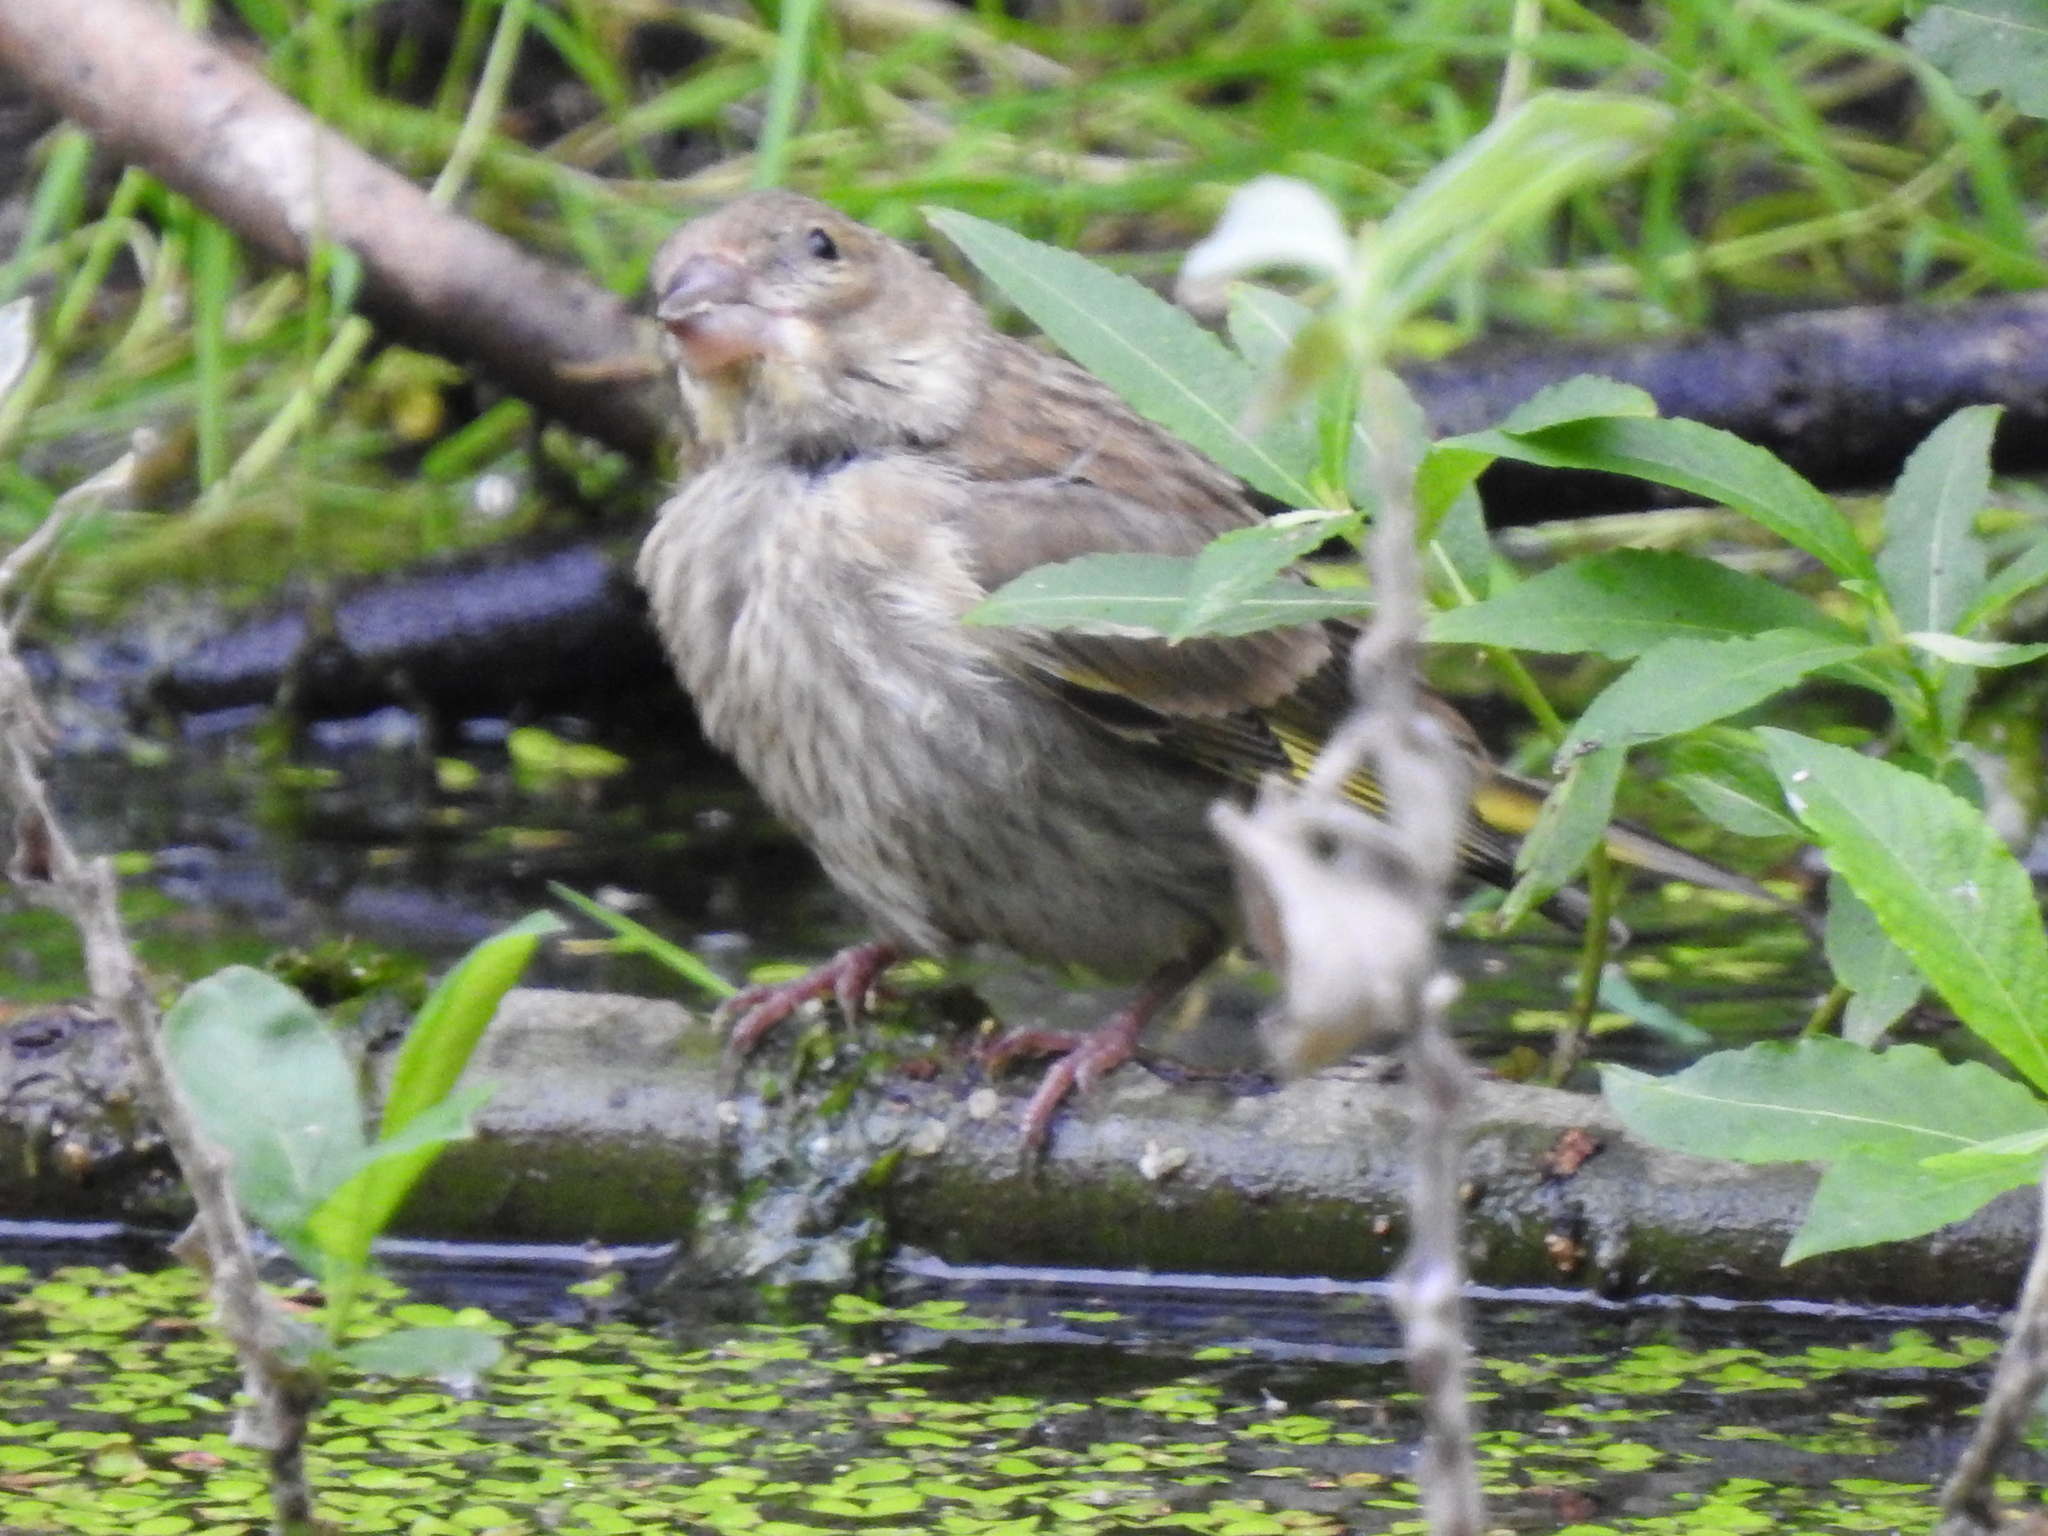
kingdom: Plantae
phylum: Tracheophyta
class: Liliopsida
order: Poales
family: Poaceae
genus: Chloris
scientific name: Chloris chloris
